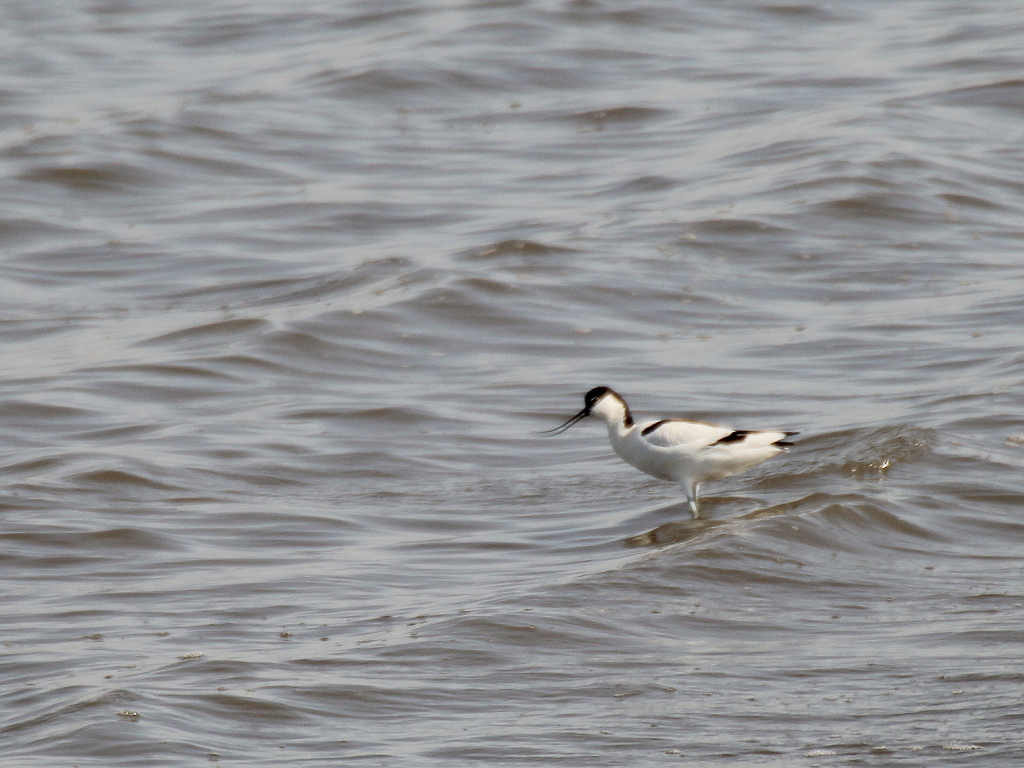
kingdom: Animalia
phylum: Chordata
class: Aves
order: Charadriiformes
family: Recurvirostridae
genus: Recurvirostra
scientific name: Recurvirostra avosetta
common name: Pied avocet
